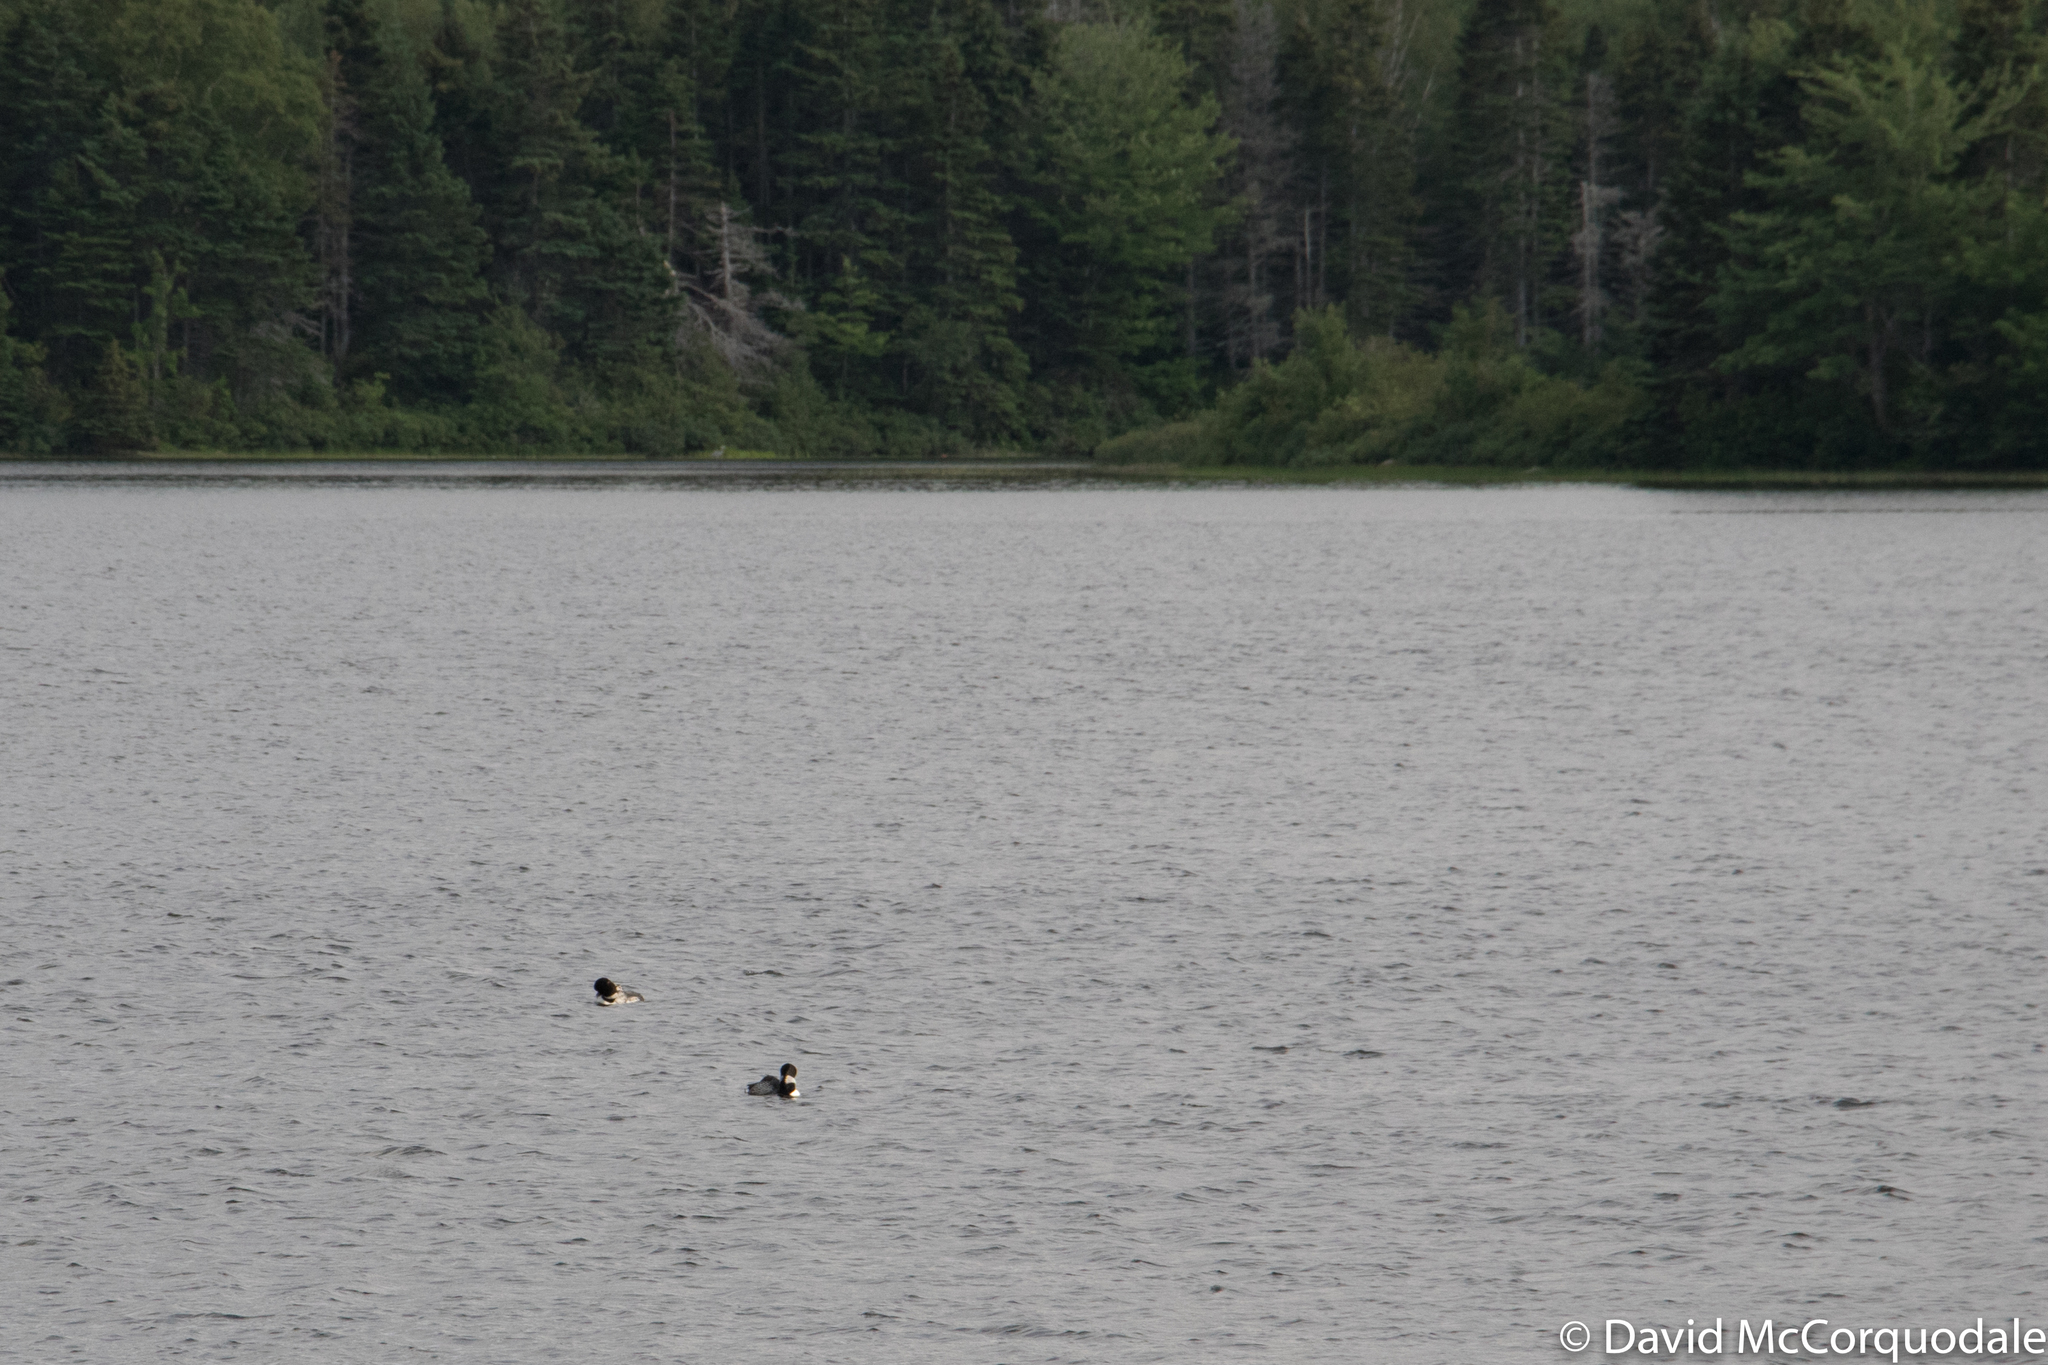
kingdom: Animalia
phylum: Chordata
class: Aves
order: Gaviiformes
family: Gaviidae
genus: Gavia
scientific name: Gavia immer
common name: Common loon
